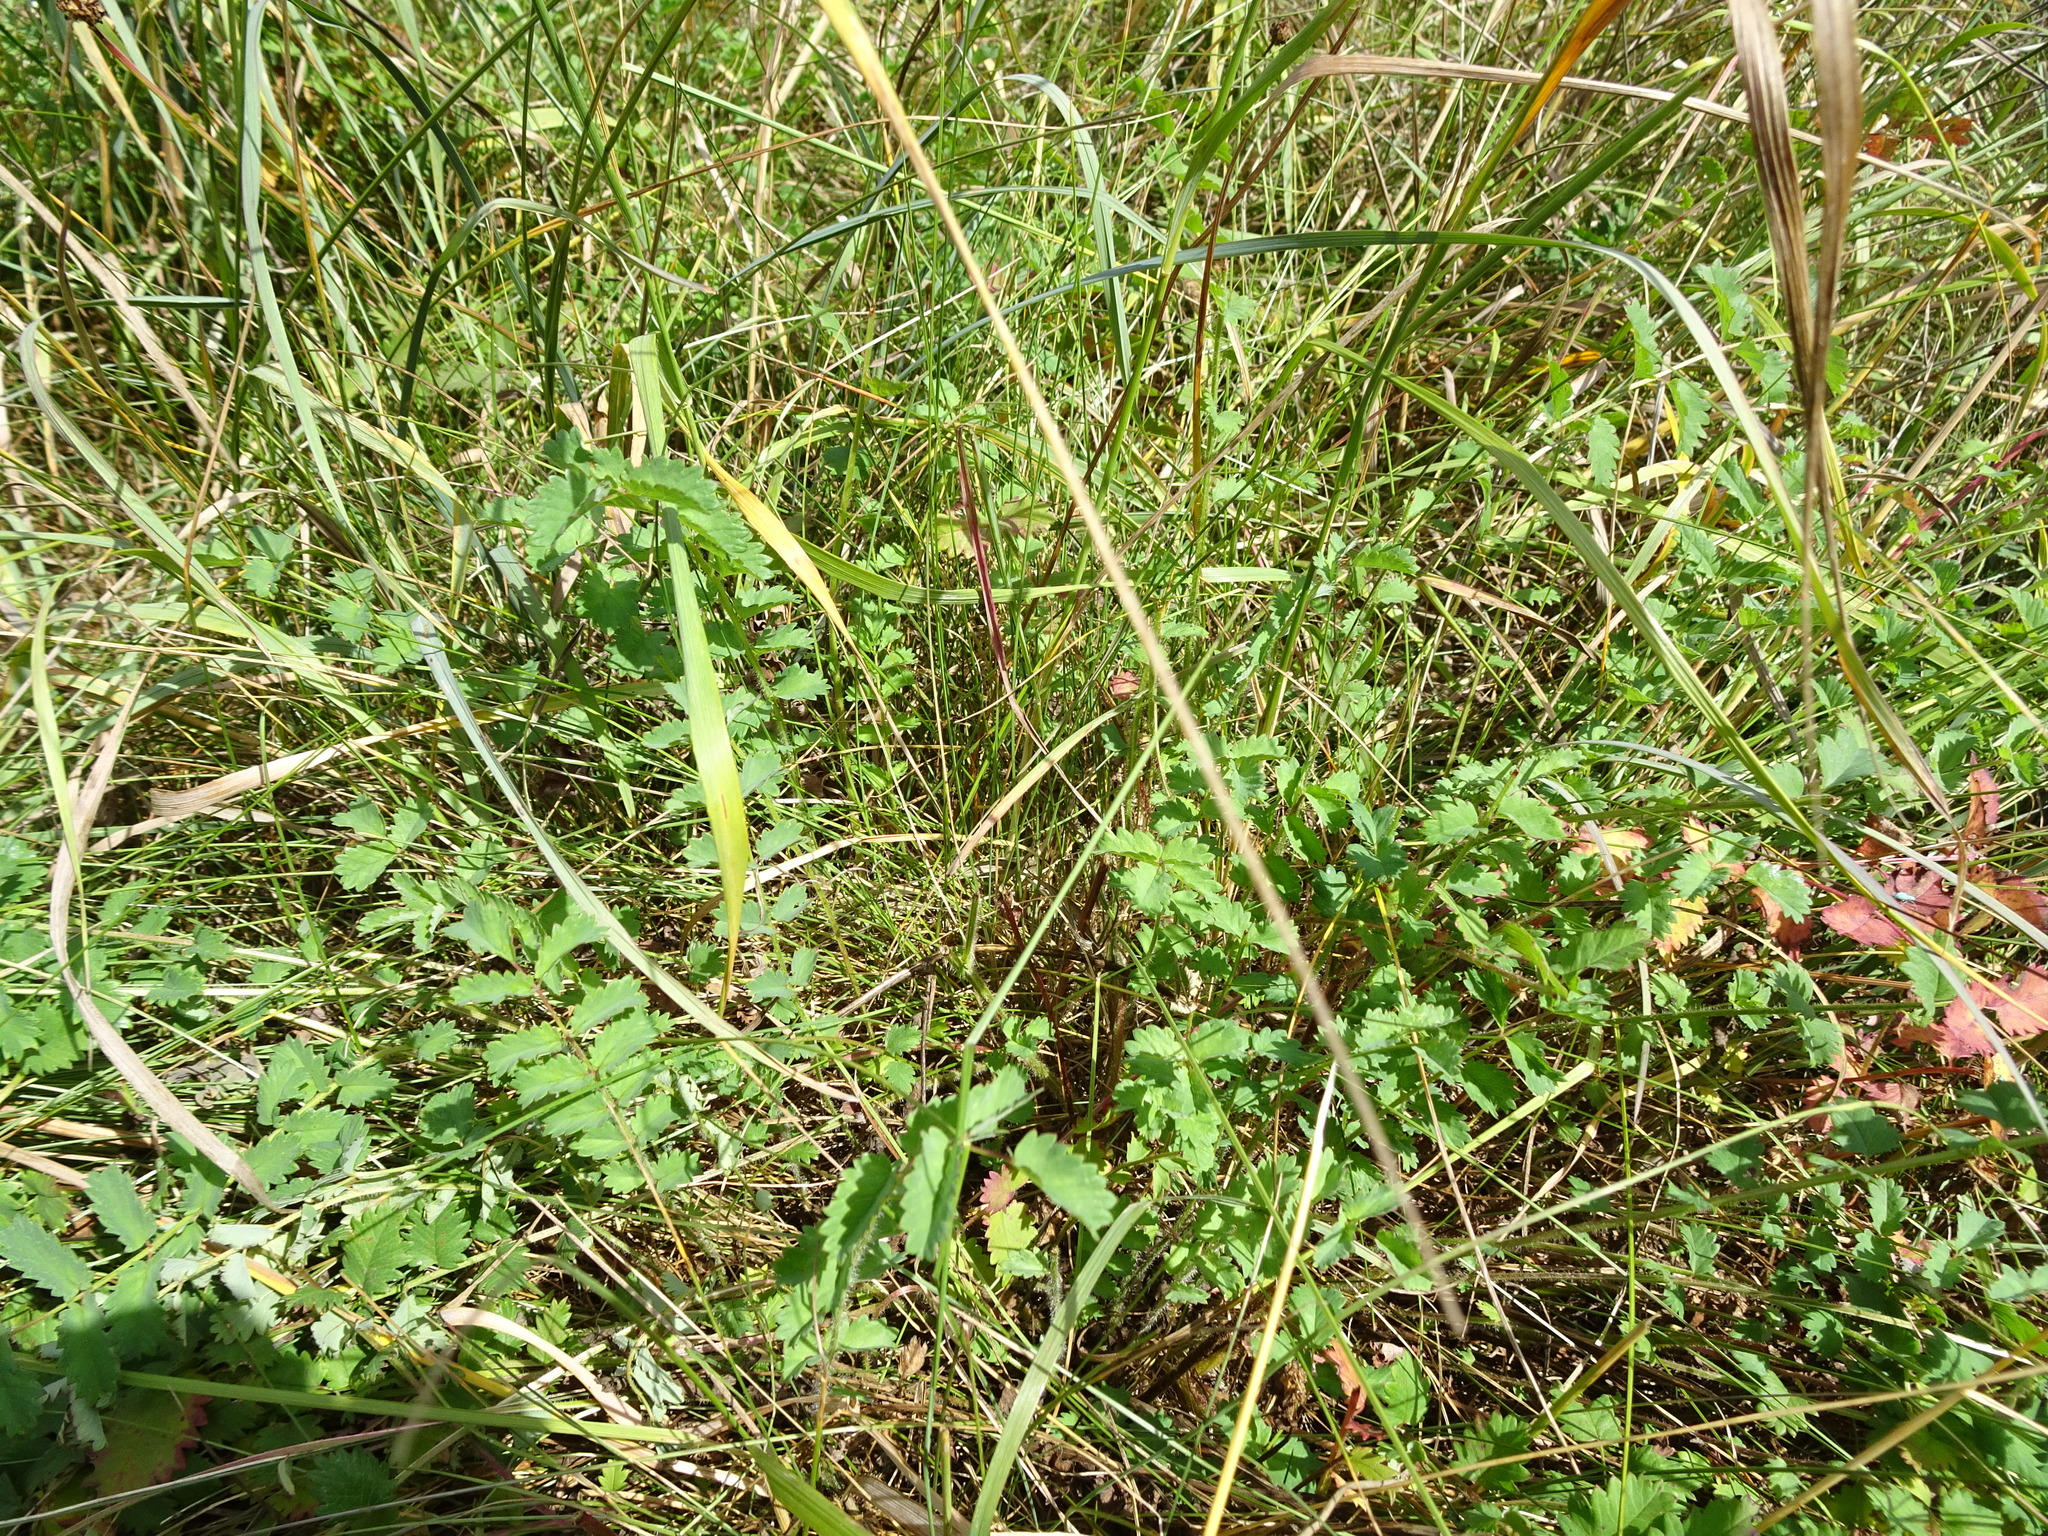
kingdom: Plantae
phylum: Tracheophyta
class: Magnoliopsida
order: Rosales
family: Rosaceae
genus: Poterium
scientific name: Poterium sanguisorba
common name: Salad burnet
